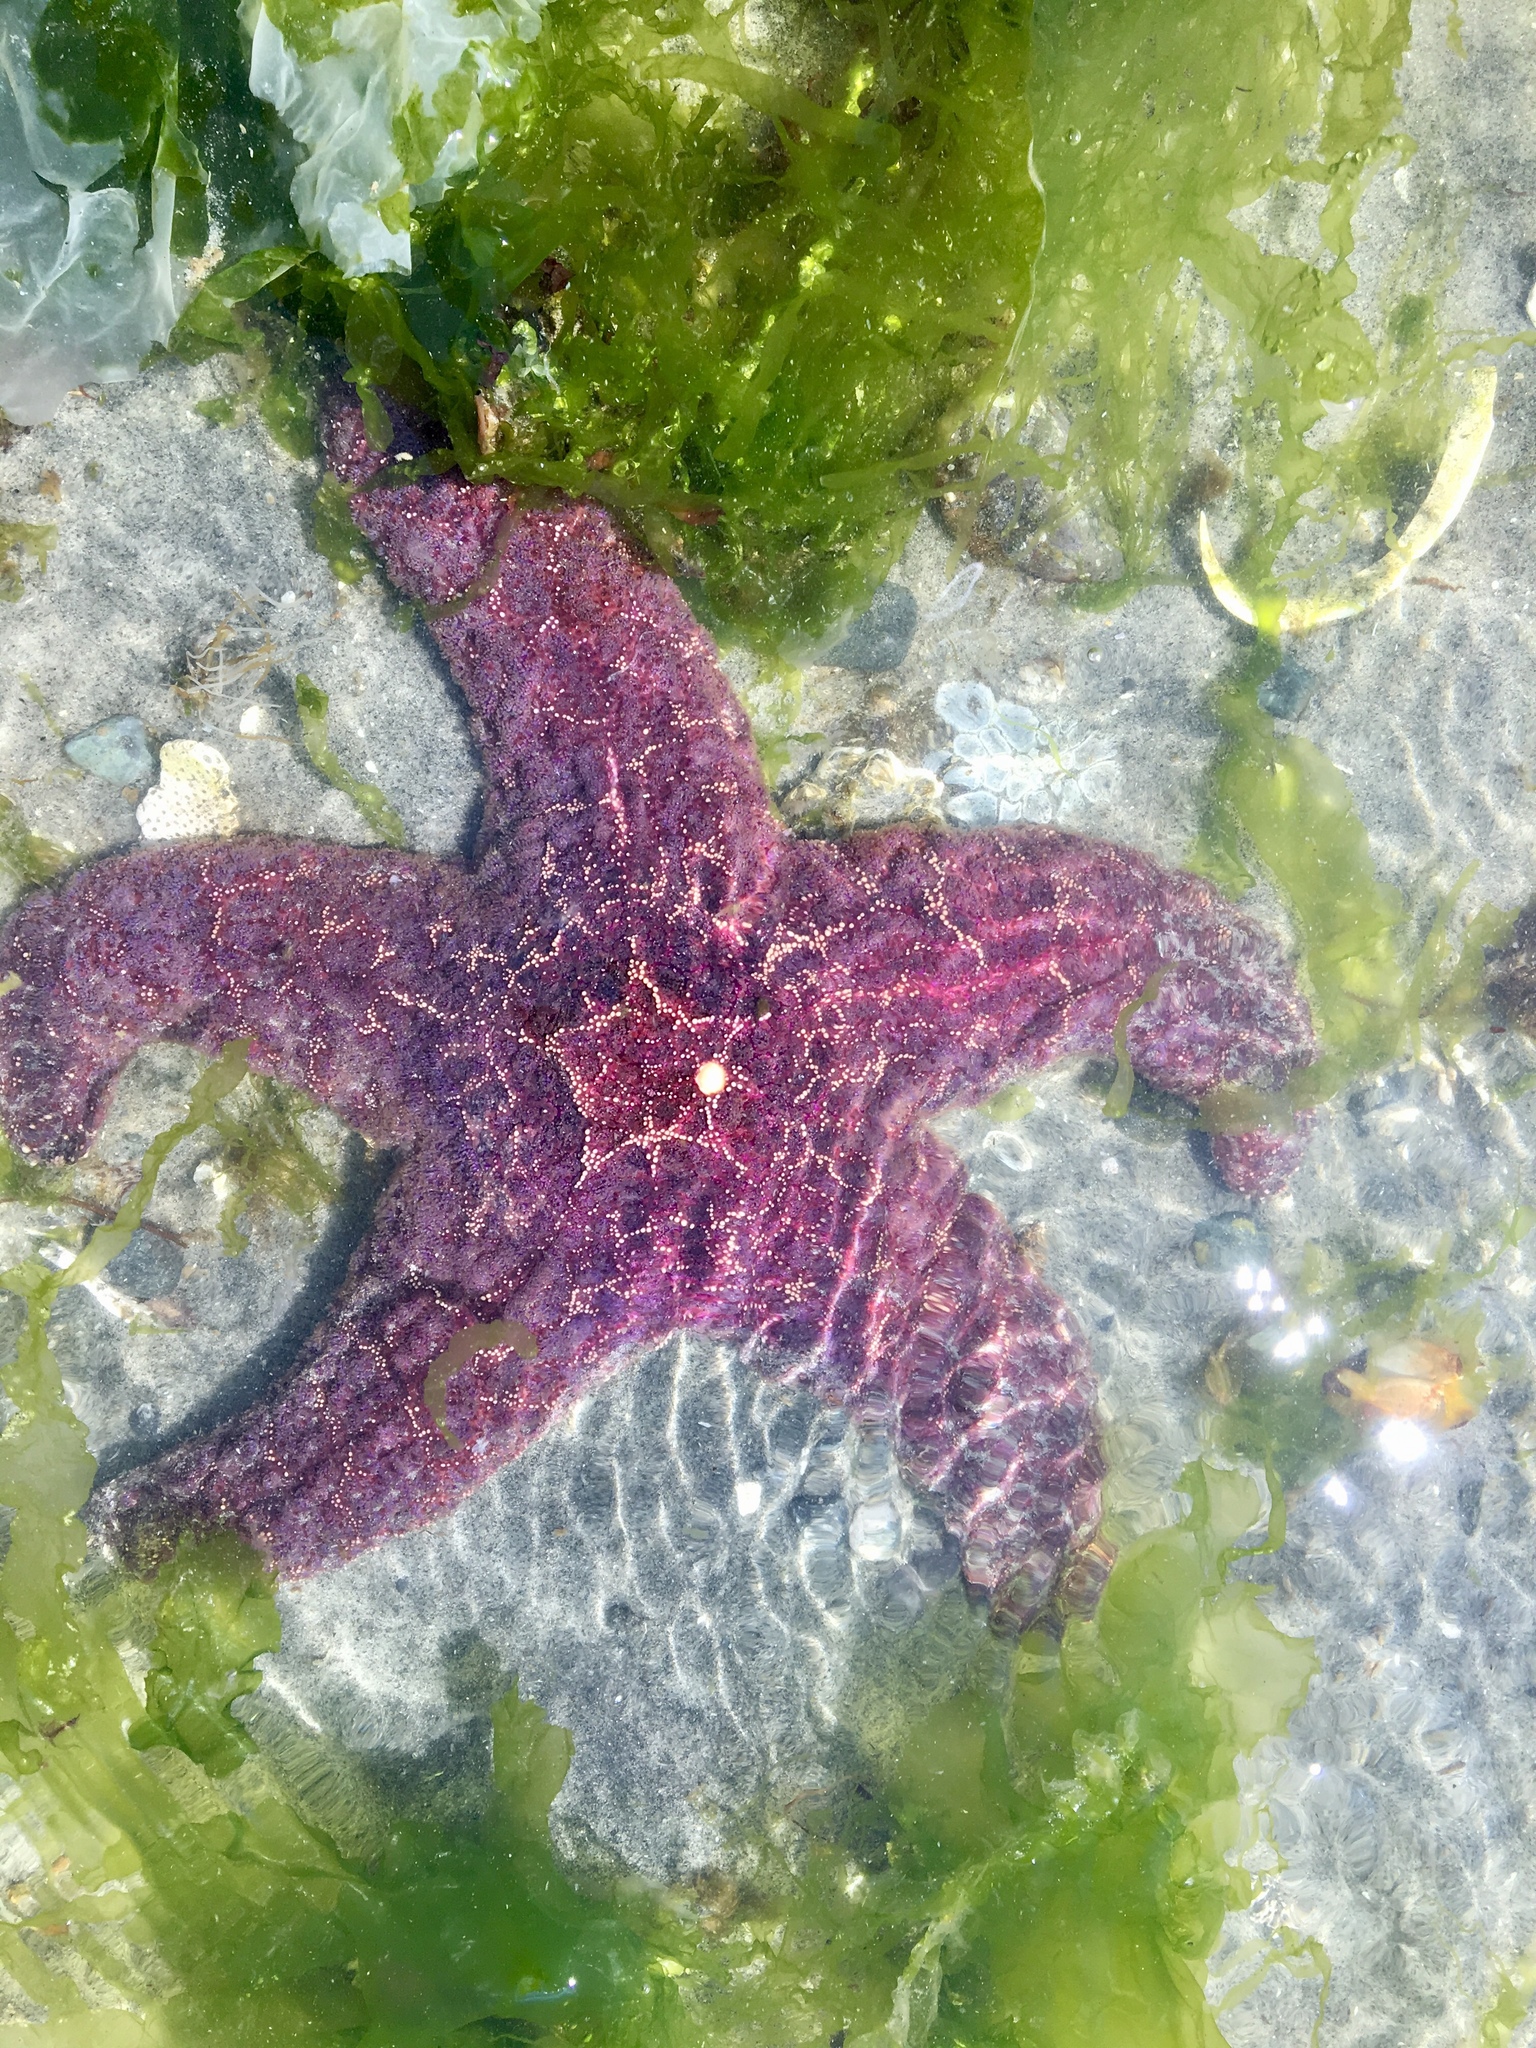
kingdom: Animalia
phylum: Echinodermata
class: Asteroidea
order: Forcipulatida
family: Asteriidae
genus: Pisaster
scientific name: Pisaster ochraceus
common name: Ochre stars
